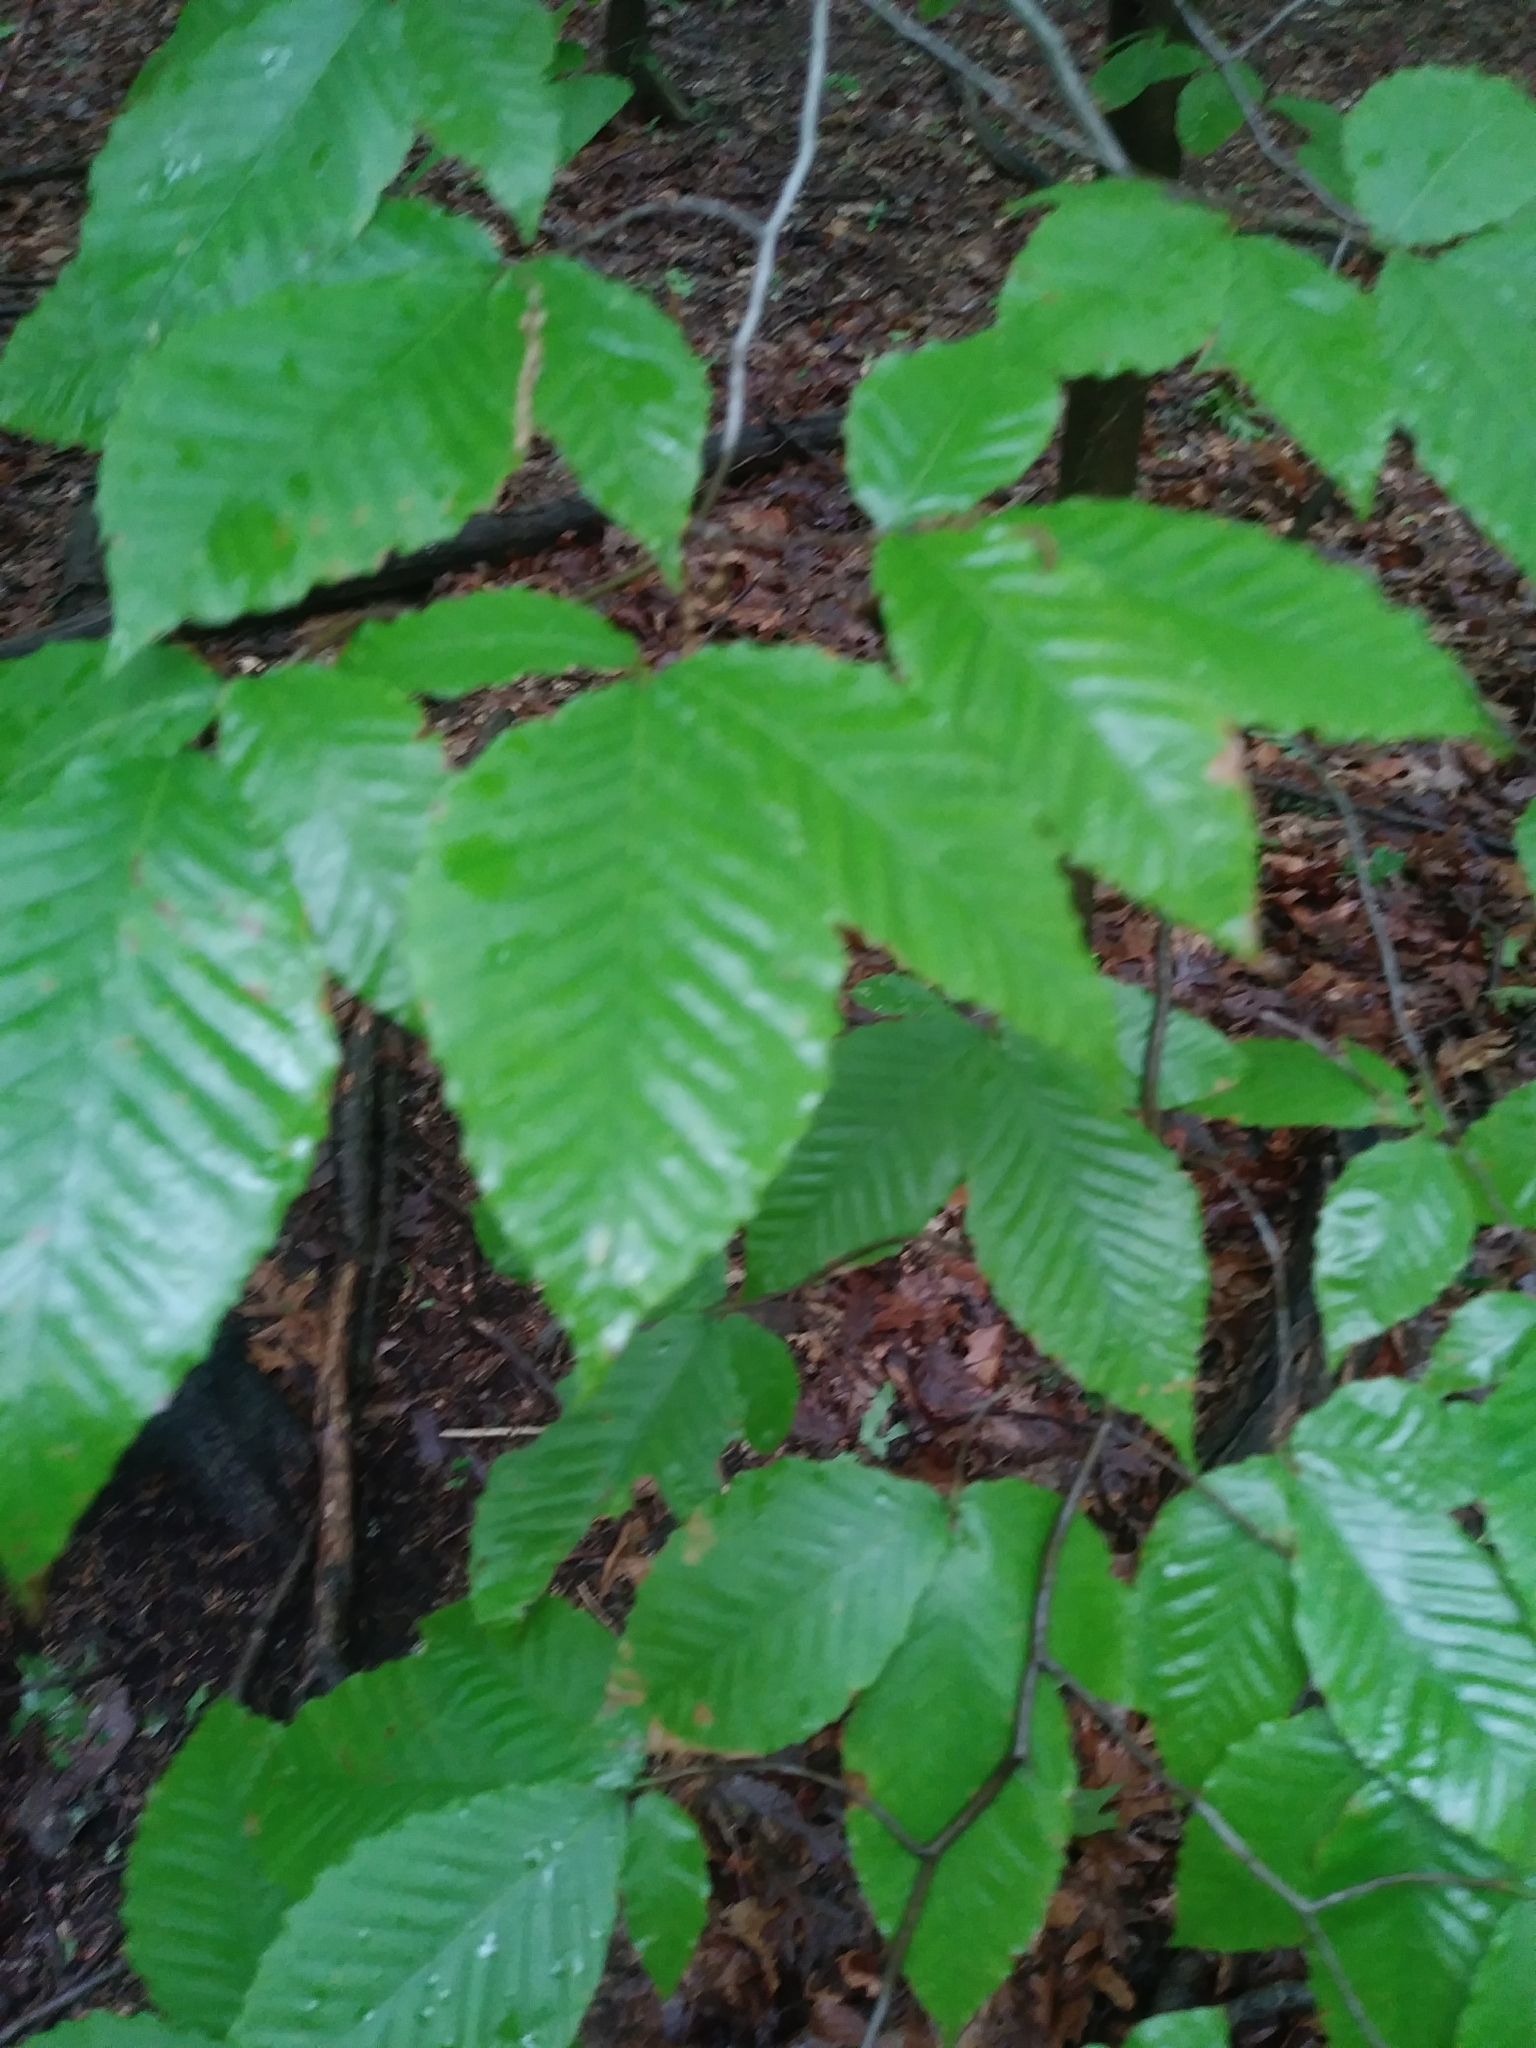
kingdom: Plantae
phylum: Tracheophyta
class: Magnoliopsida
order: Fagales
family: Fagaceae
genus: Fagus
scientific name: Fagus grandifolia
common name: American beech
